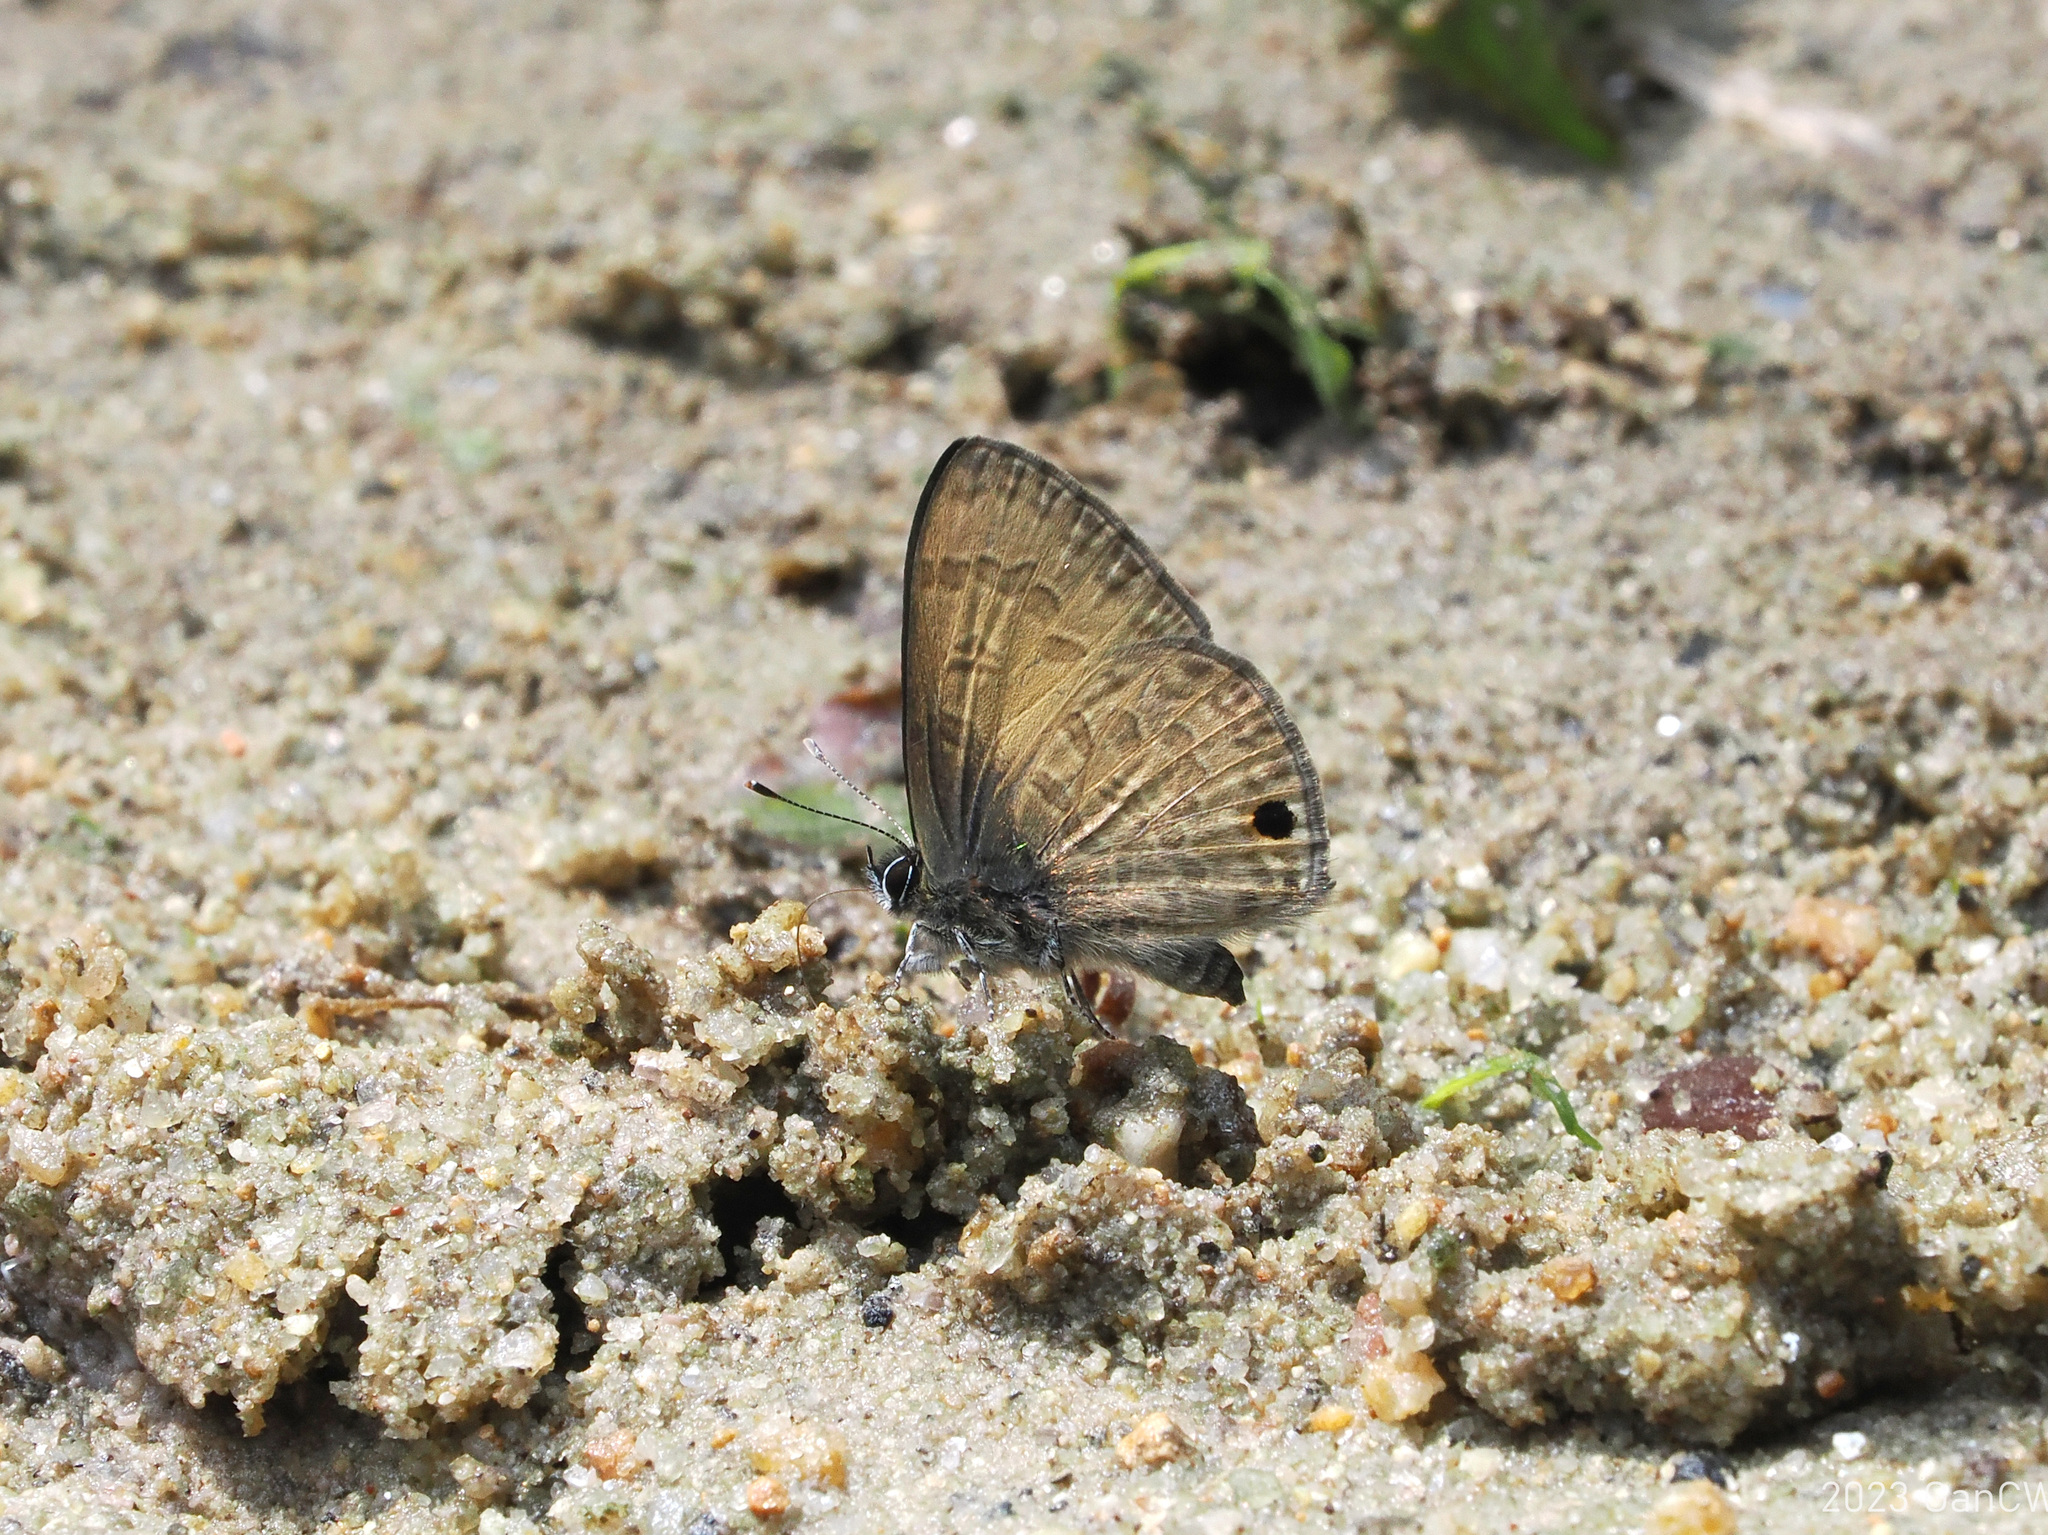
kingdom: Animalia
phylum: Arthropoda
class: Insecta
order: Lepidoptera
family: Lycaenidae
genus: Prosotas
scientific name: Prosotas gracilis
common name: Dark-based lineblue
